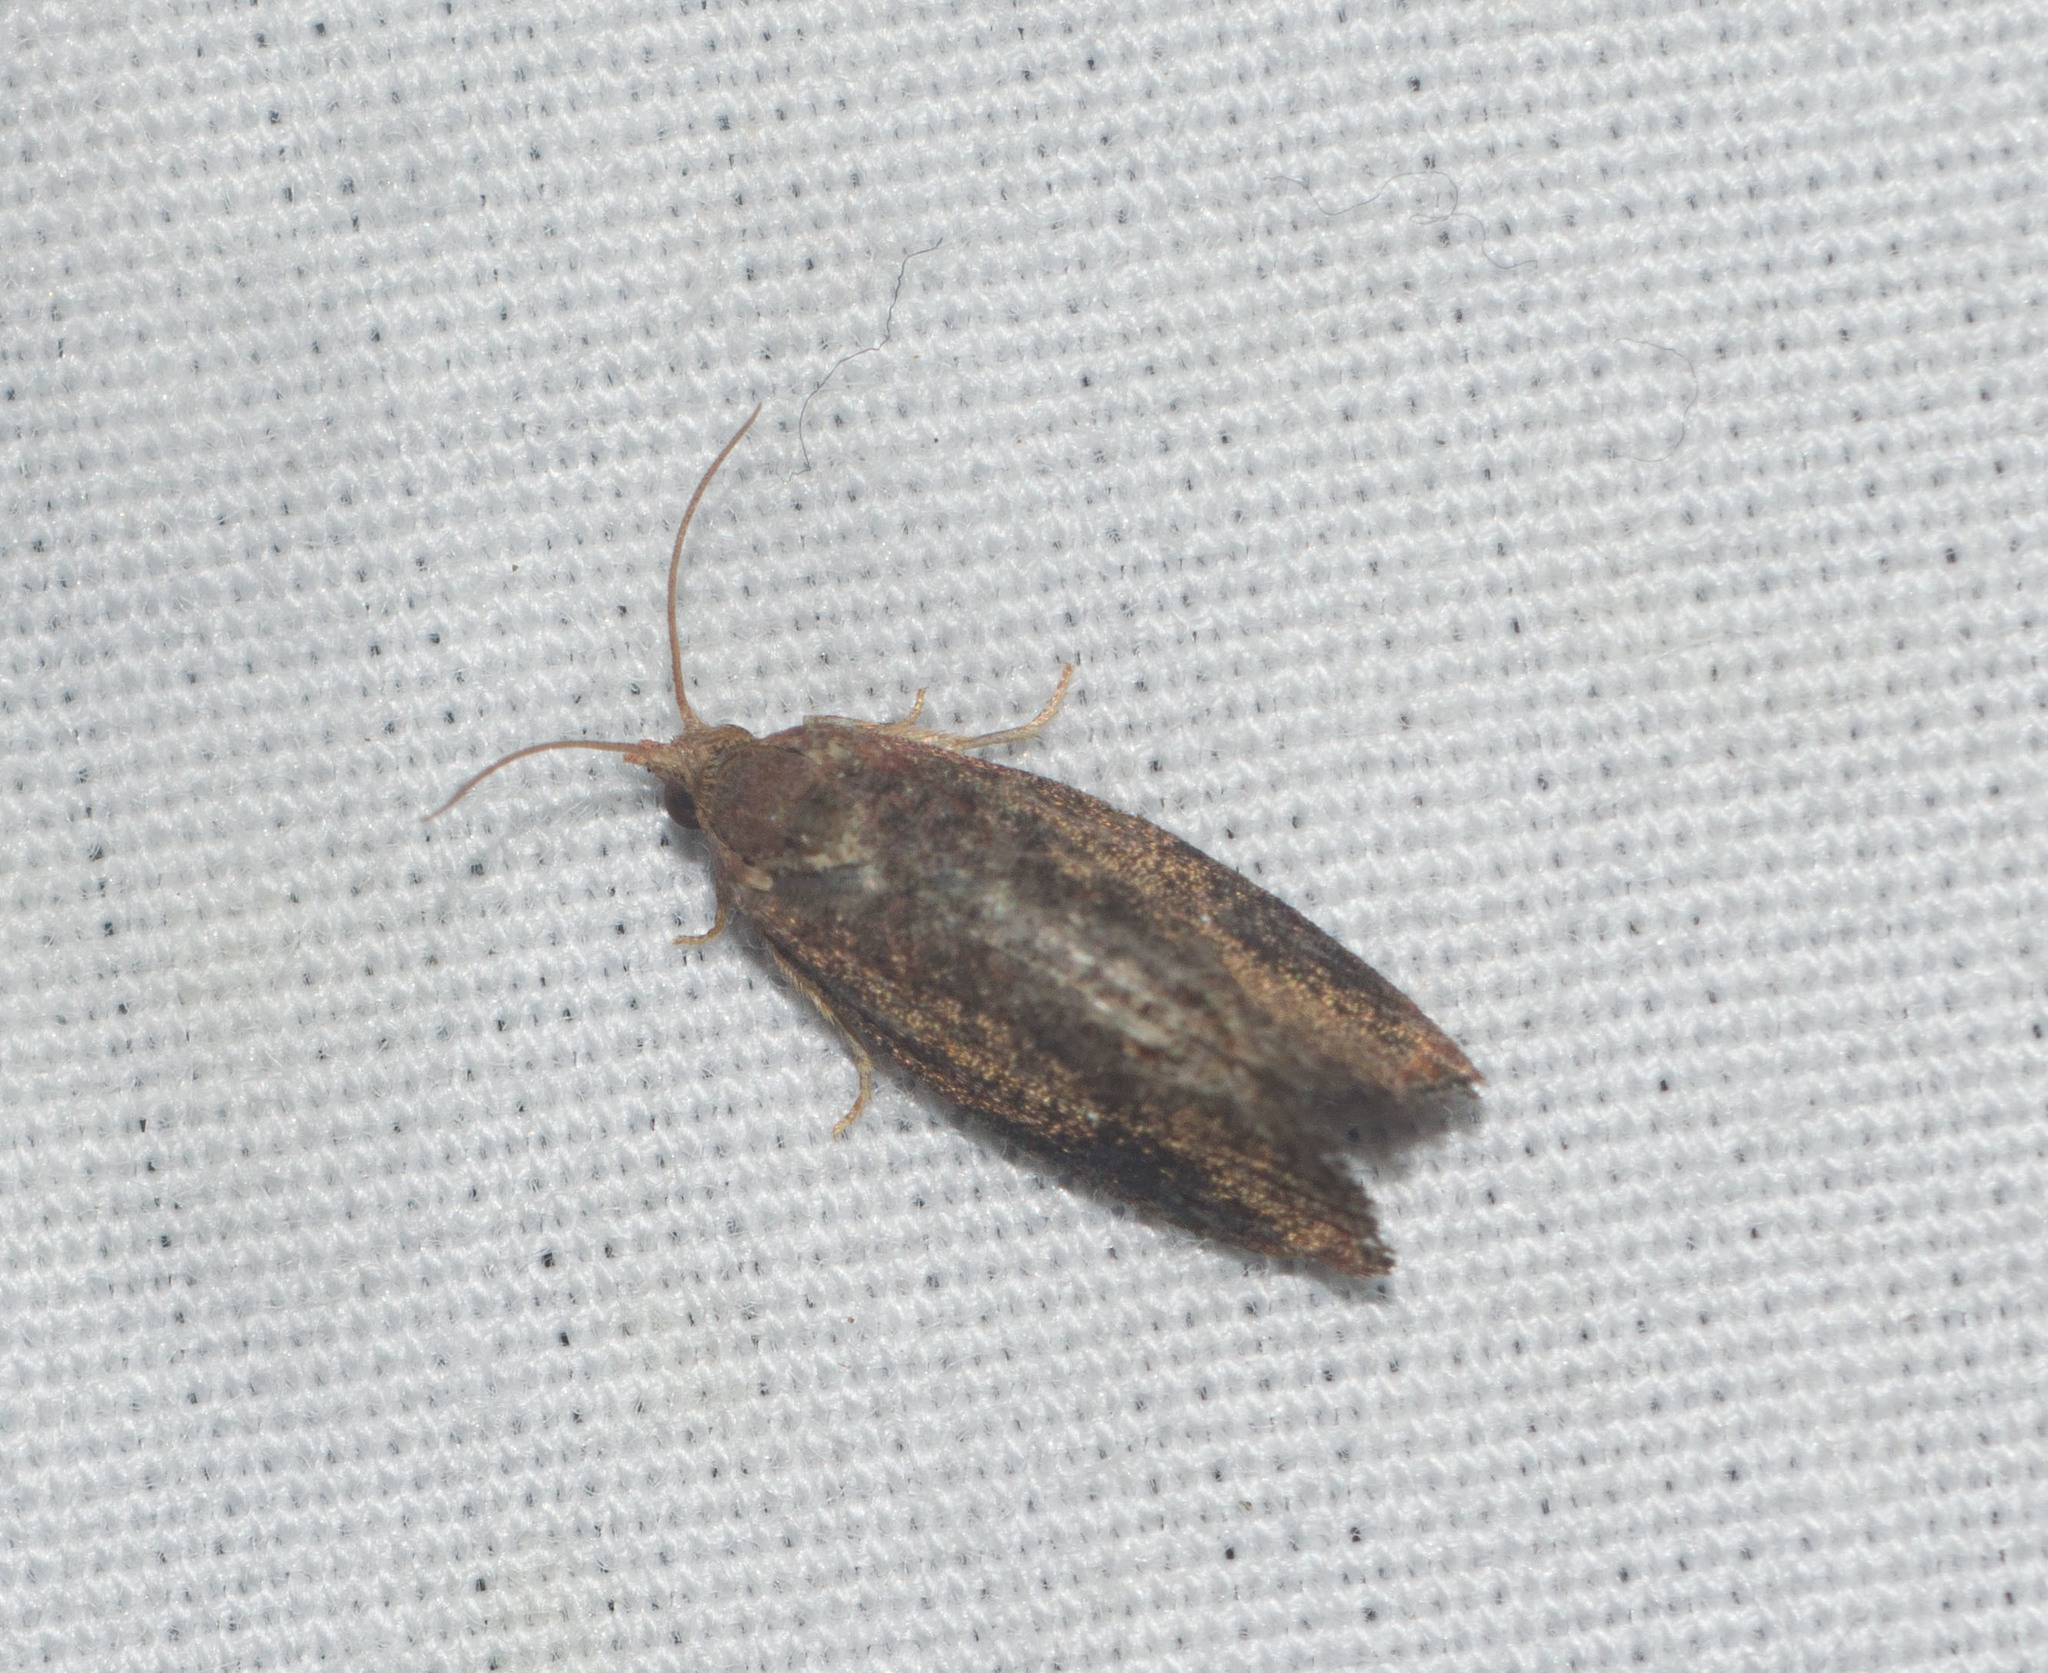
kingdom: Animalia
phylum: Arthropoda
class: Insecta
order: Lepidoptera
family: Tortricidae
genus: Cryptophlebia
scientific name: Cryptophlebia illepida
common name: Moth
